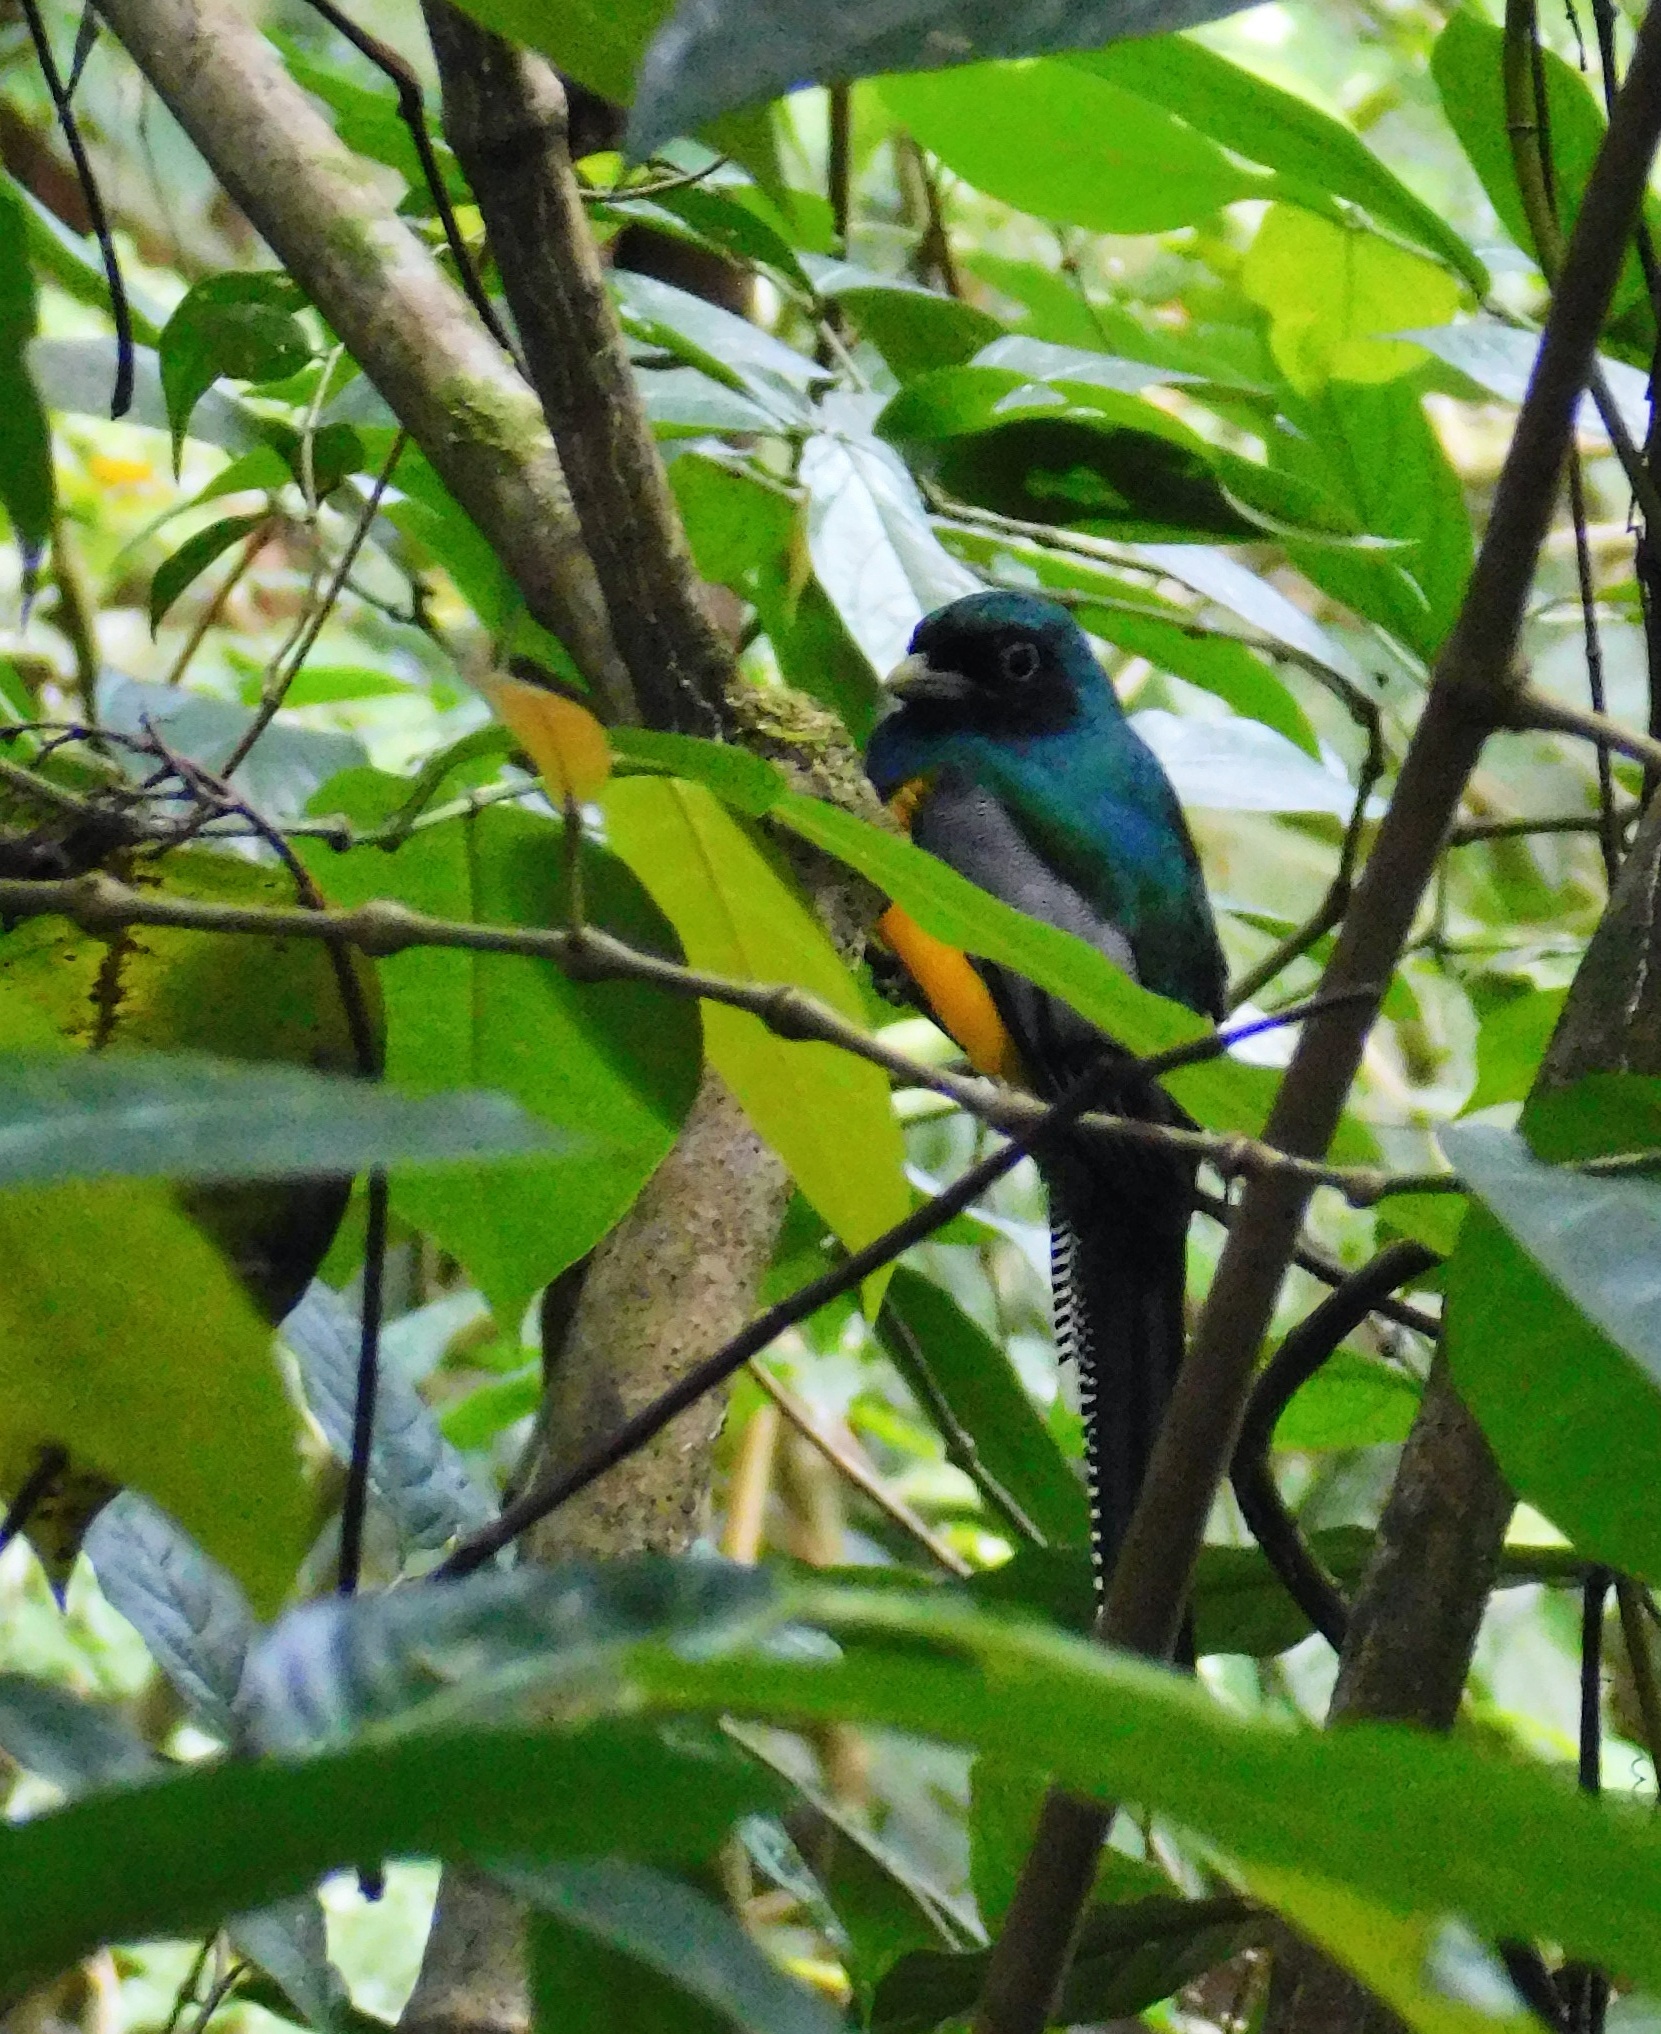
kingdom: Animalia
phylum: Chordata
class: Aves
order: Trogoniformes
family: Trogonidae
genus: Trogon
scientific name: Trogon rufus
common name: Black-throated trogon
